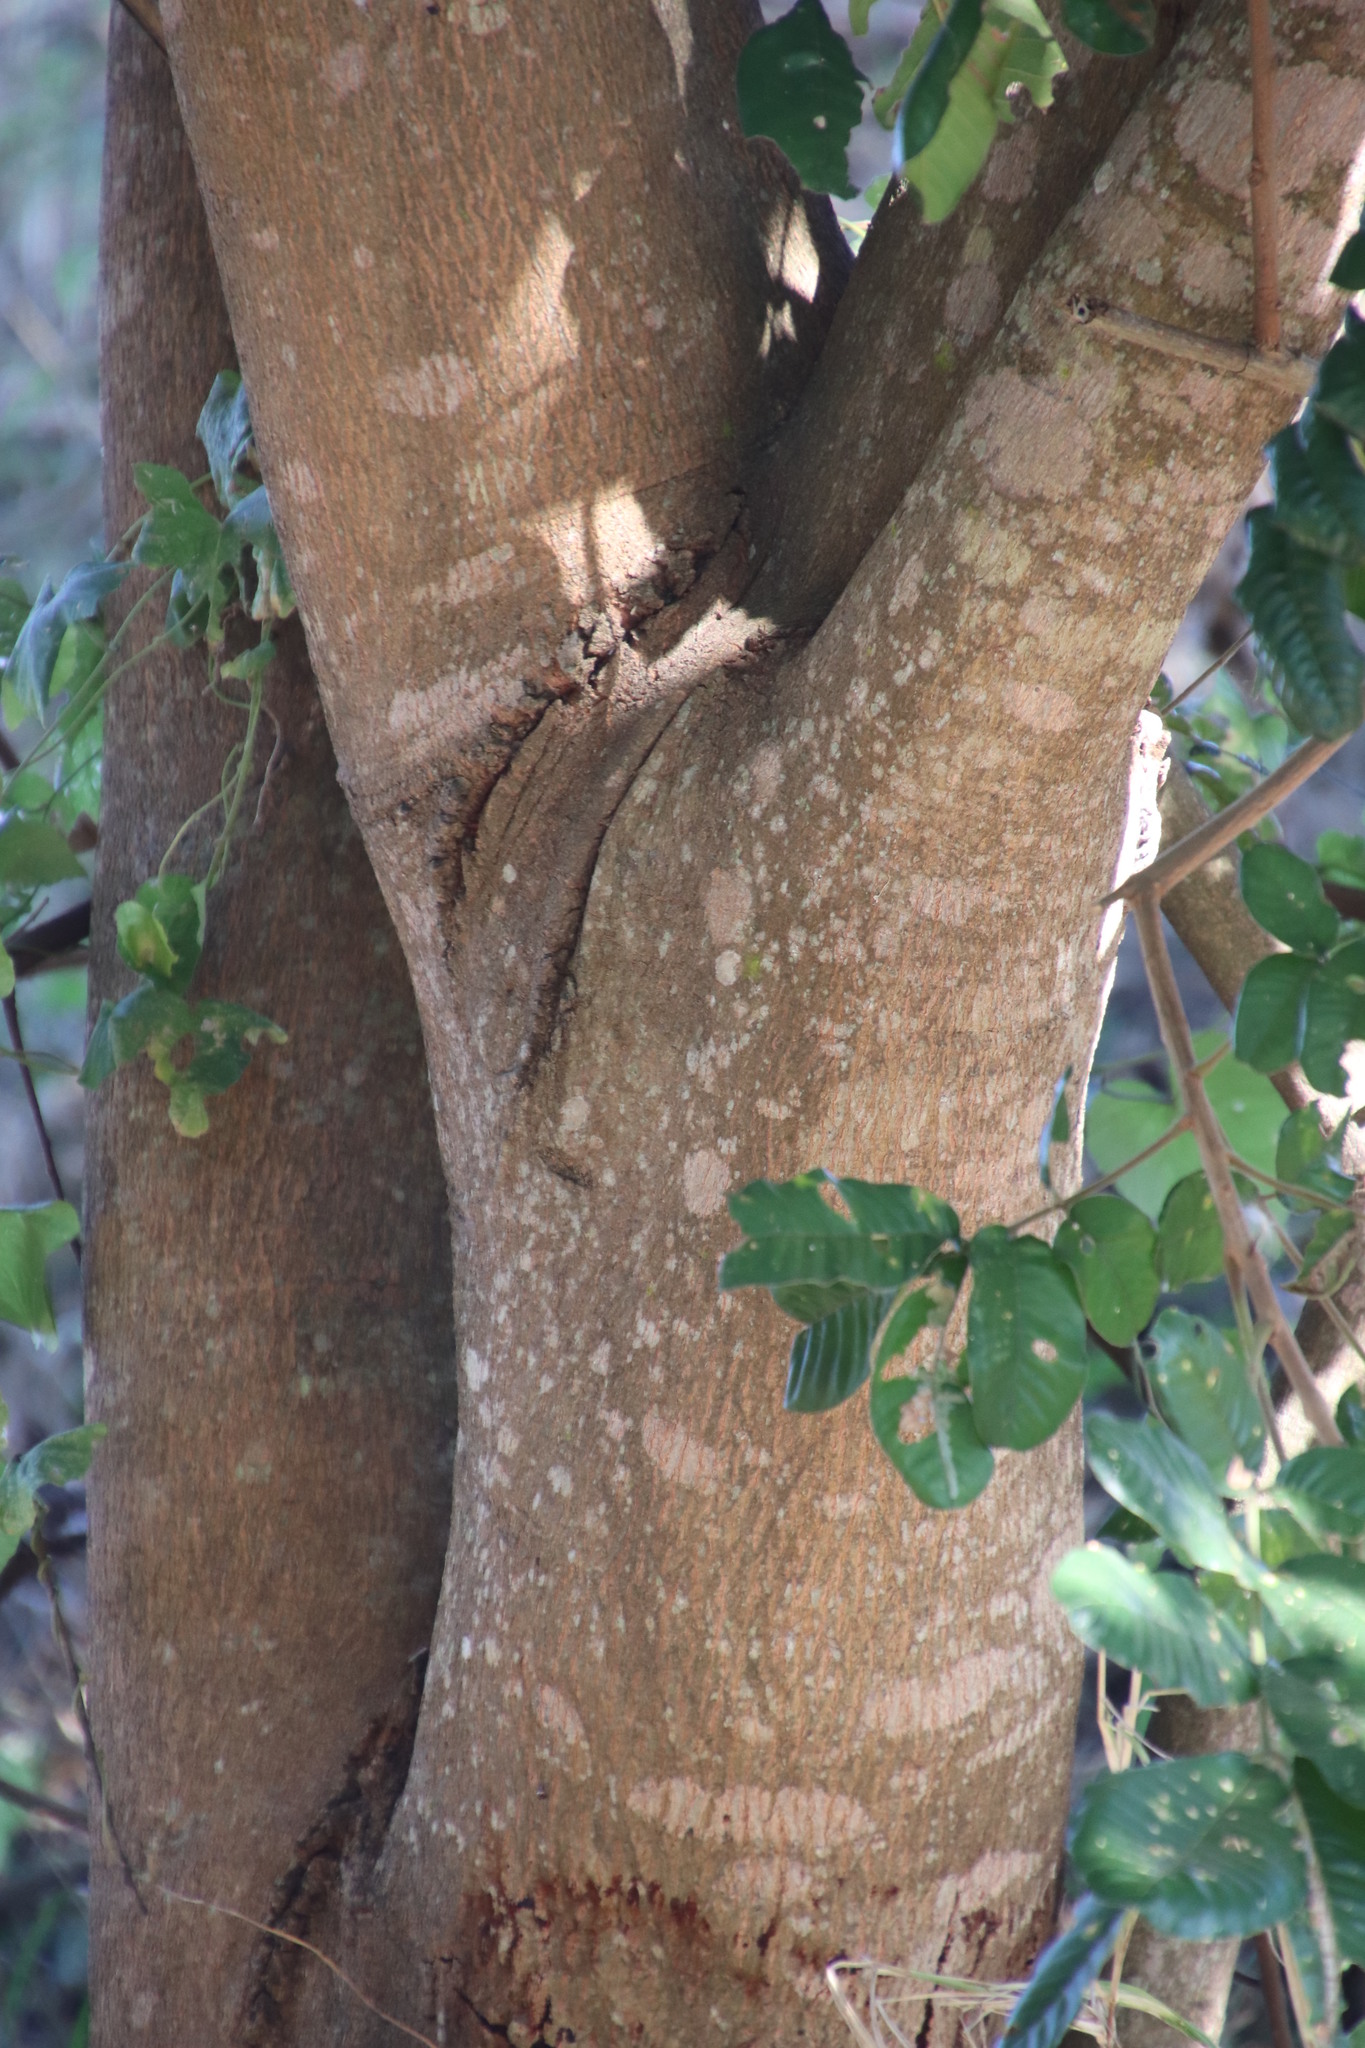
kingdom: Plantae
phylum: Tracheophyta
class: Magnoliopsida
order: Sapindales
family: Meliaceae
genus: Trichilia
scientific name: Trichilia emetica
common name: Christmas-bells
